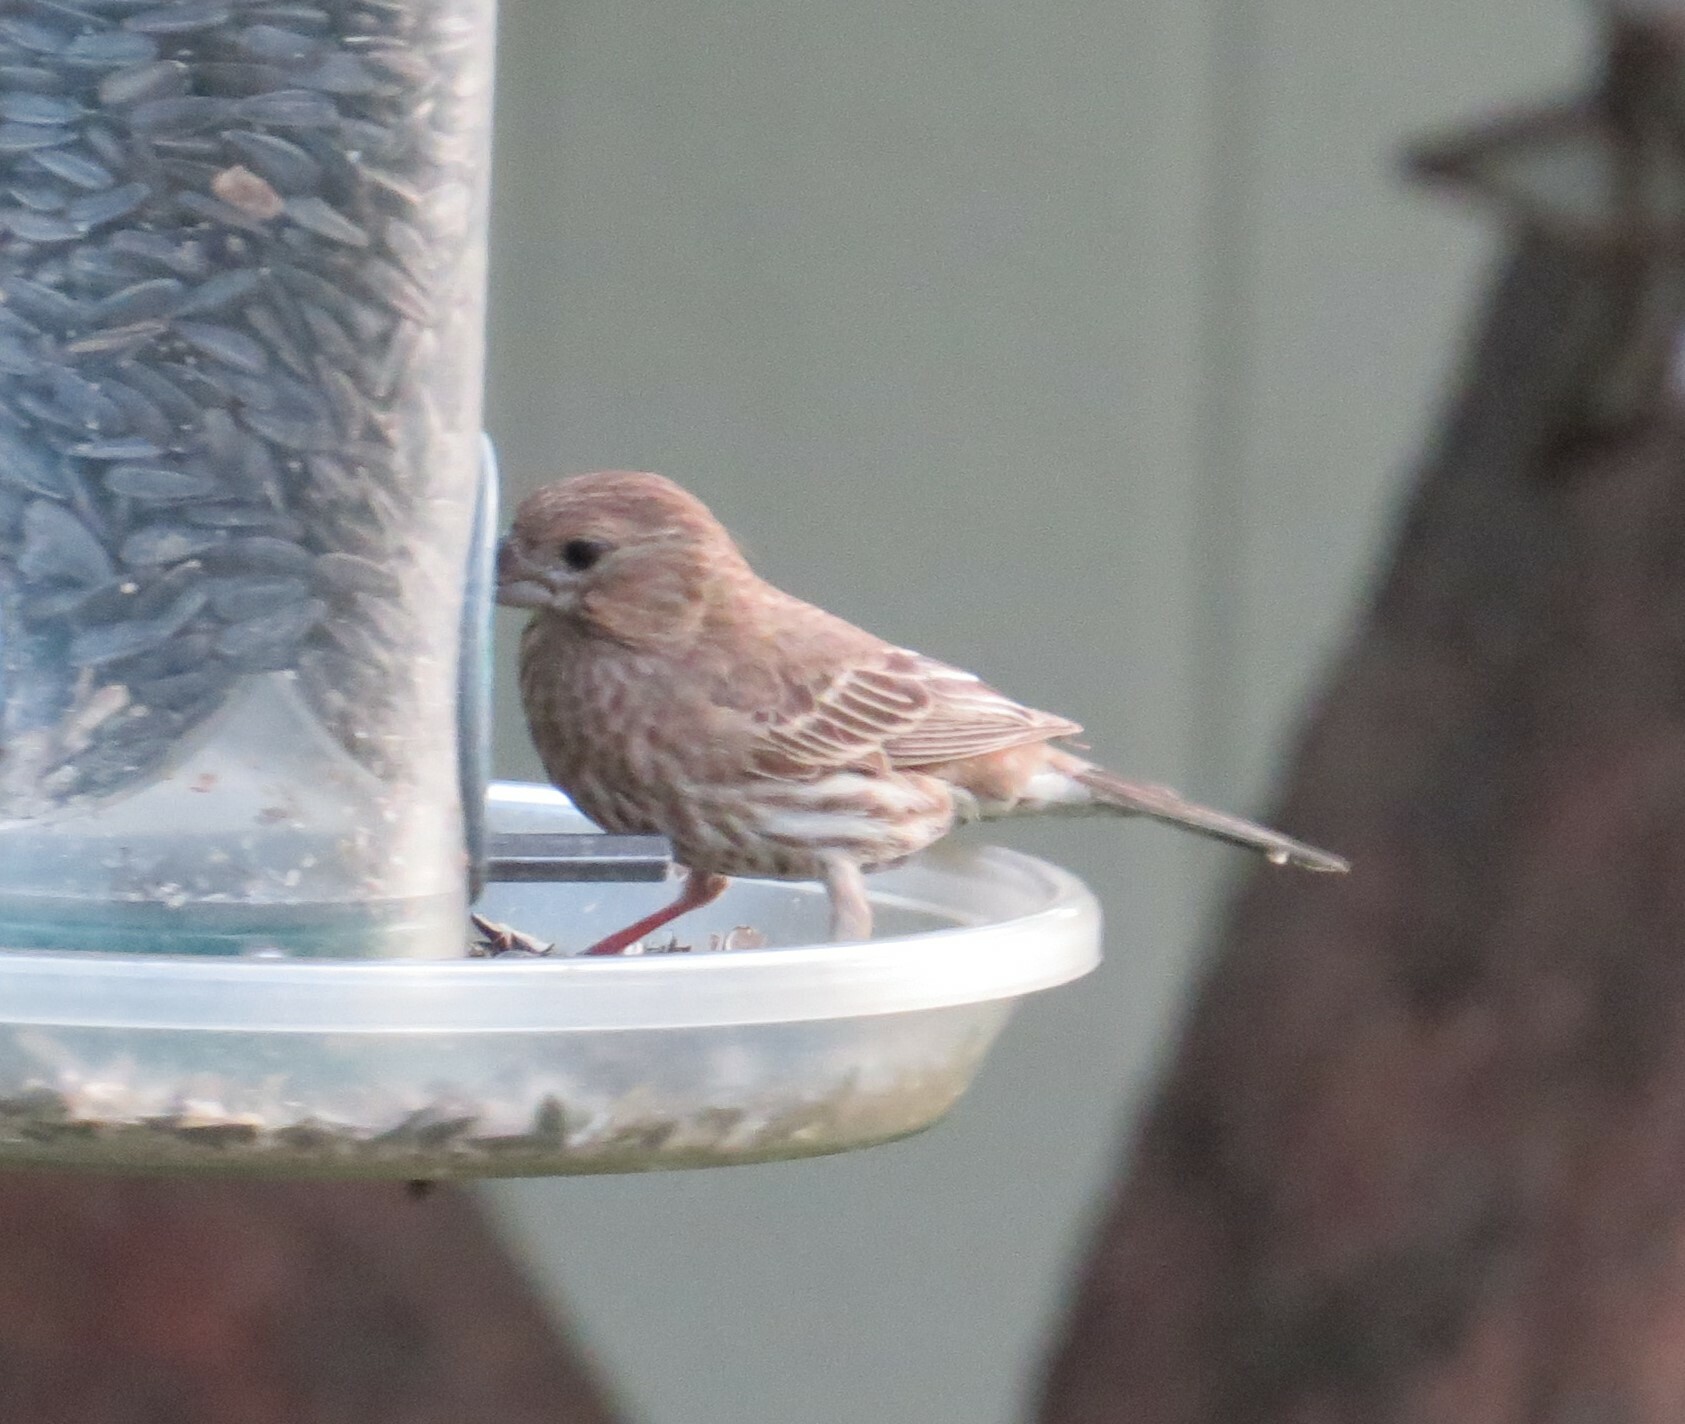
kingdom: Animalia
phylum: Chordata
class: Aves
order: Passeriformes
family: Fringillidae
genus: Haemorhous
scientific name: Haemorhous mexicanus
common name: House finch
